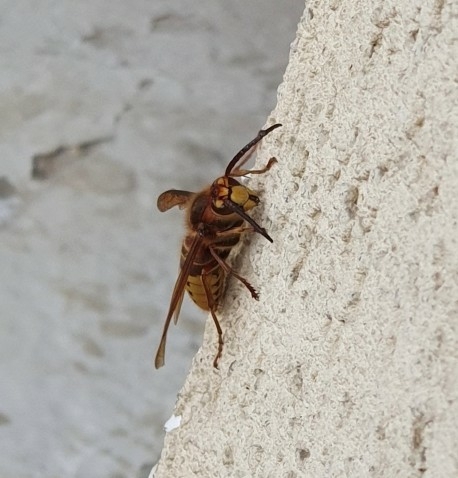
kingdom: Animalia
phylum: Arthropoda
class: Insecta
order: Hymenoptera
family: Vespidae
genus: Vespa
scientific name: Vespa crabro
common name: Hornet
